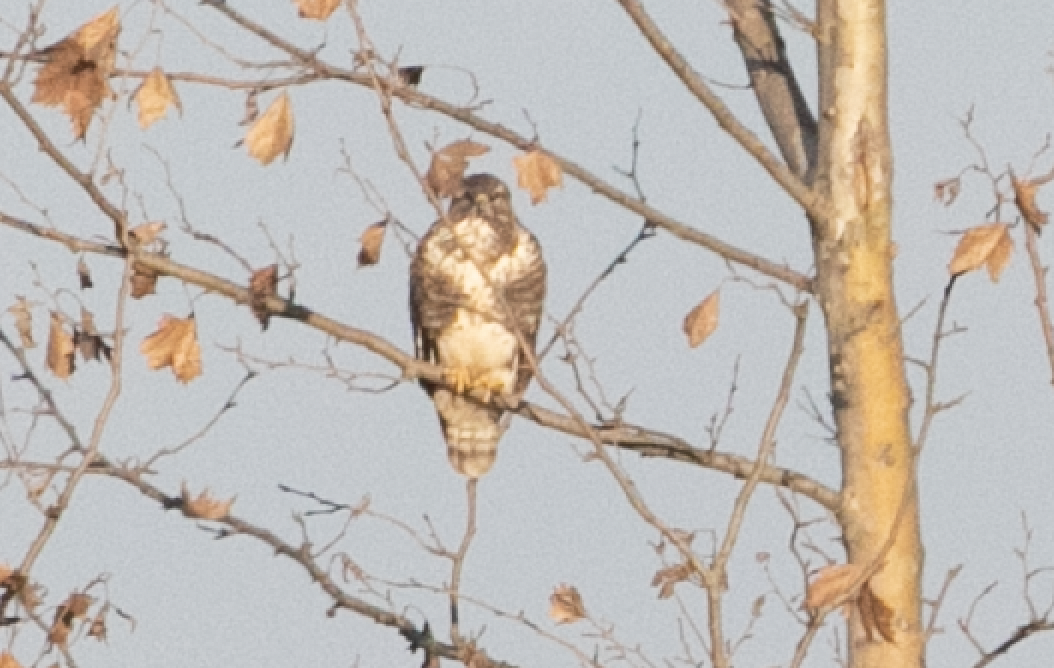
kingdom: Animalia
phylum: Chordata
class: Aves
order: Accipitriformes
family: Accipitridae
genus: Buteo
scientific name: Buteo buteo
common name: Common buzzard
